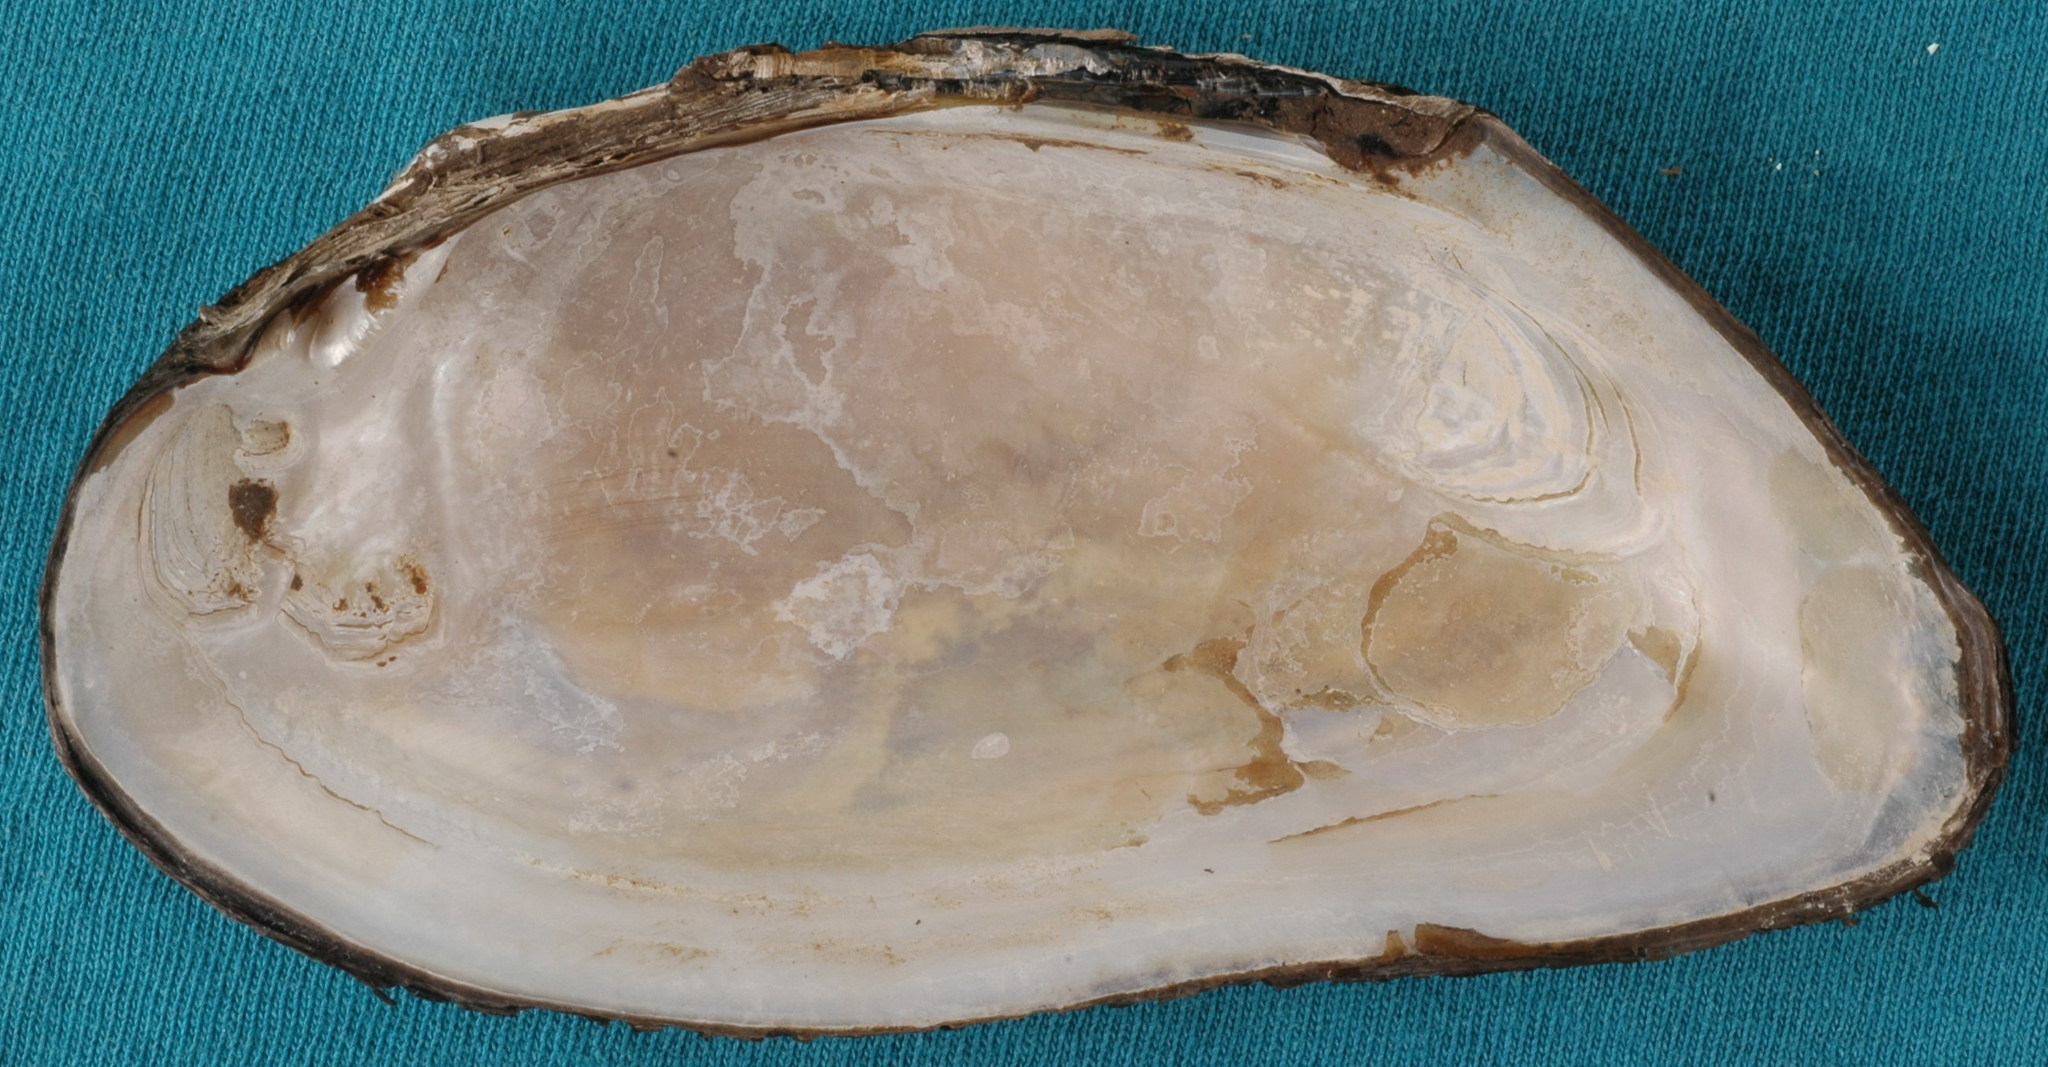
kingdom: Animalia
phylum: Mollusca
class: Bivalvia
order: Unionida
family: Unionidae
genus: Uniomerus
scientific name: Uniomerus declivis
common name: Tapered pondhorn
